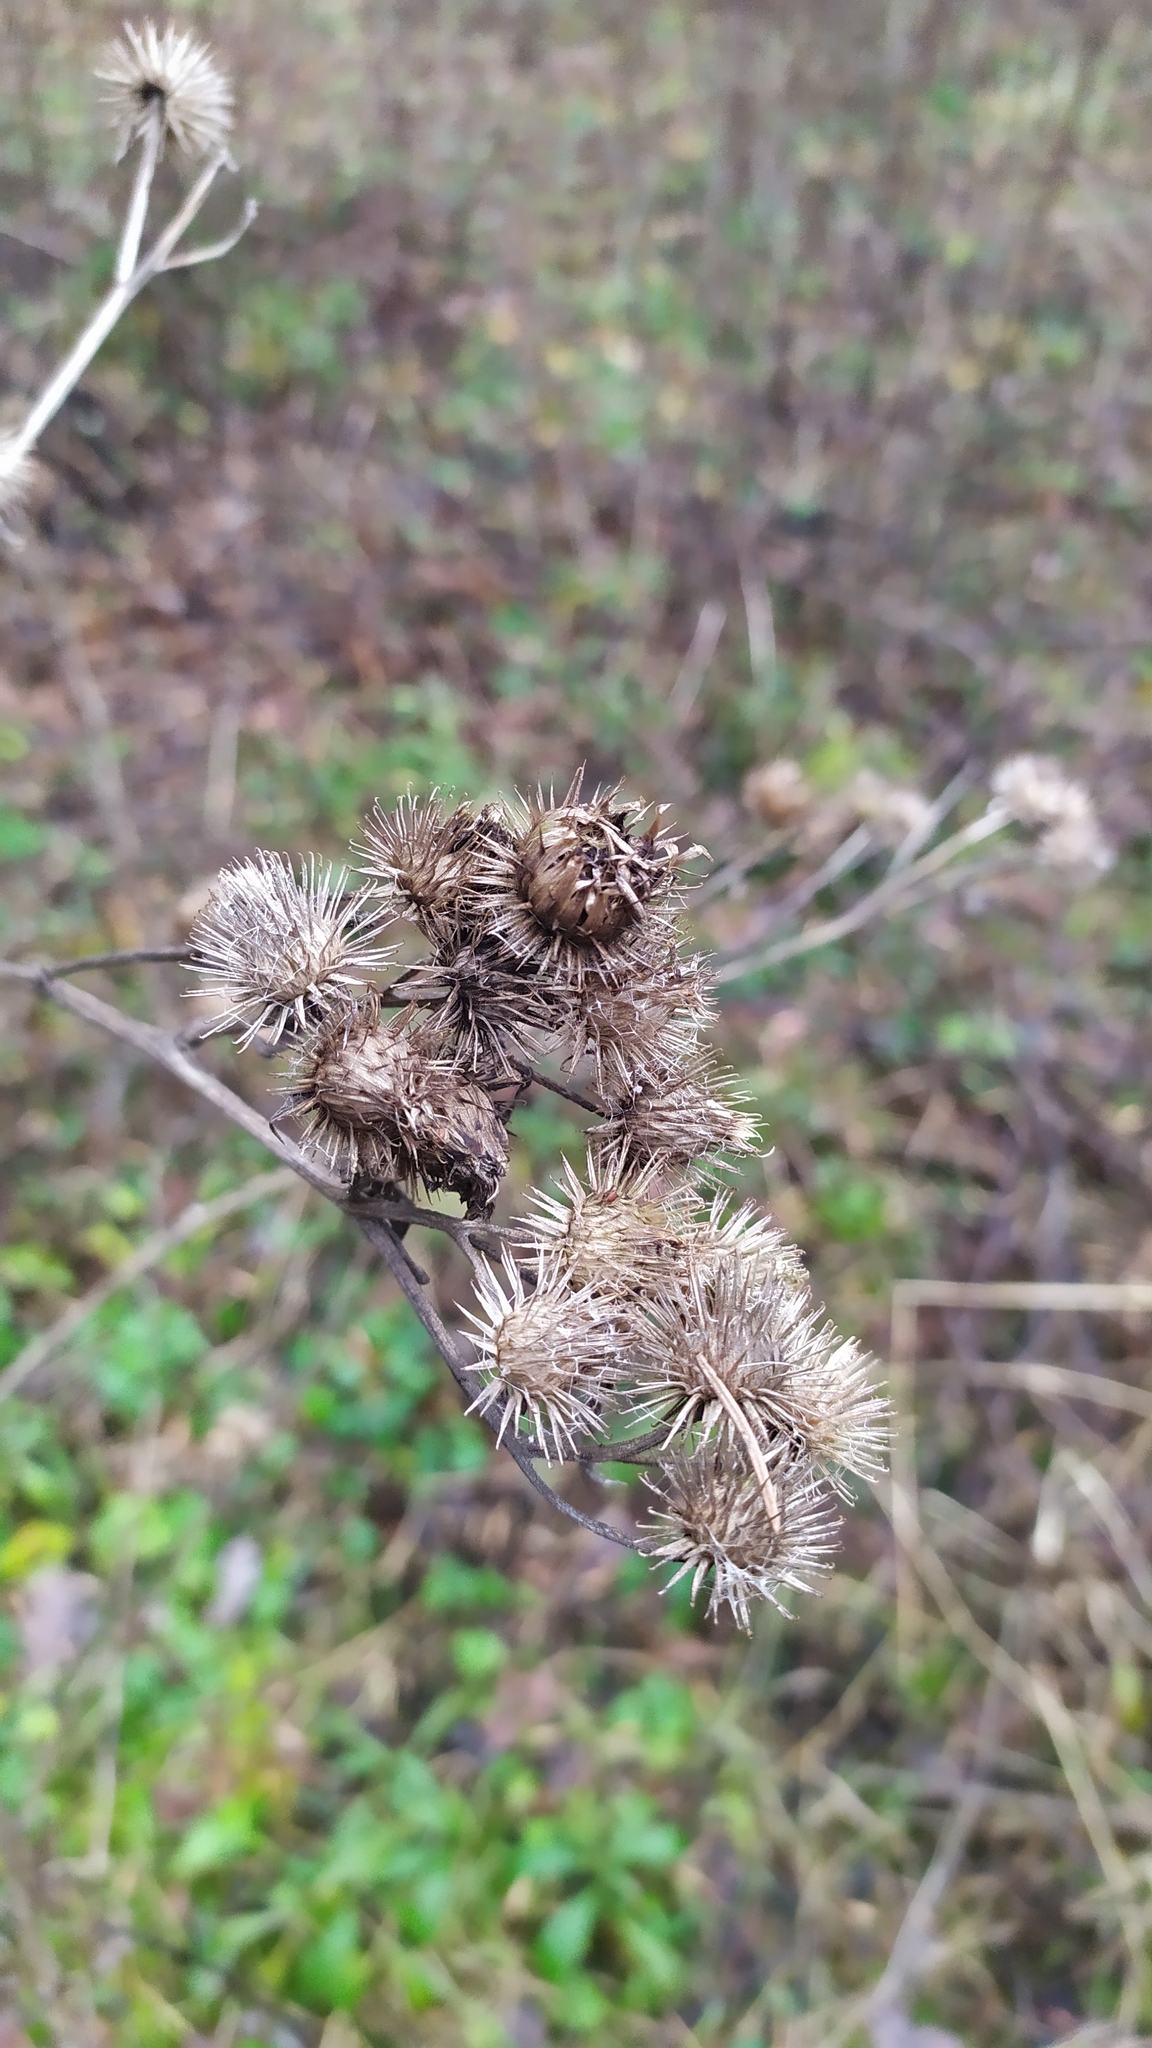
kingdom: Plantae
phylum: Tracheophyta
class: Magnoliopsida
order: Asterales
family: Asteraceae
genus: Arctium
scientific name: Arctium tomentosum
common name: Woolly burdock
